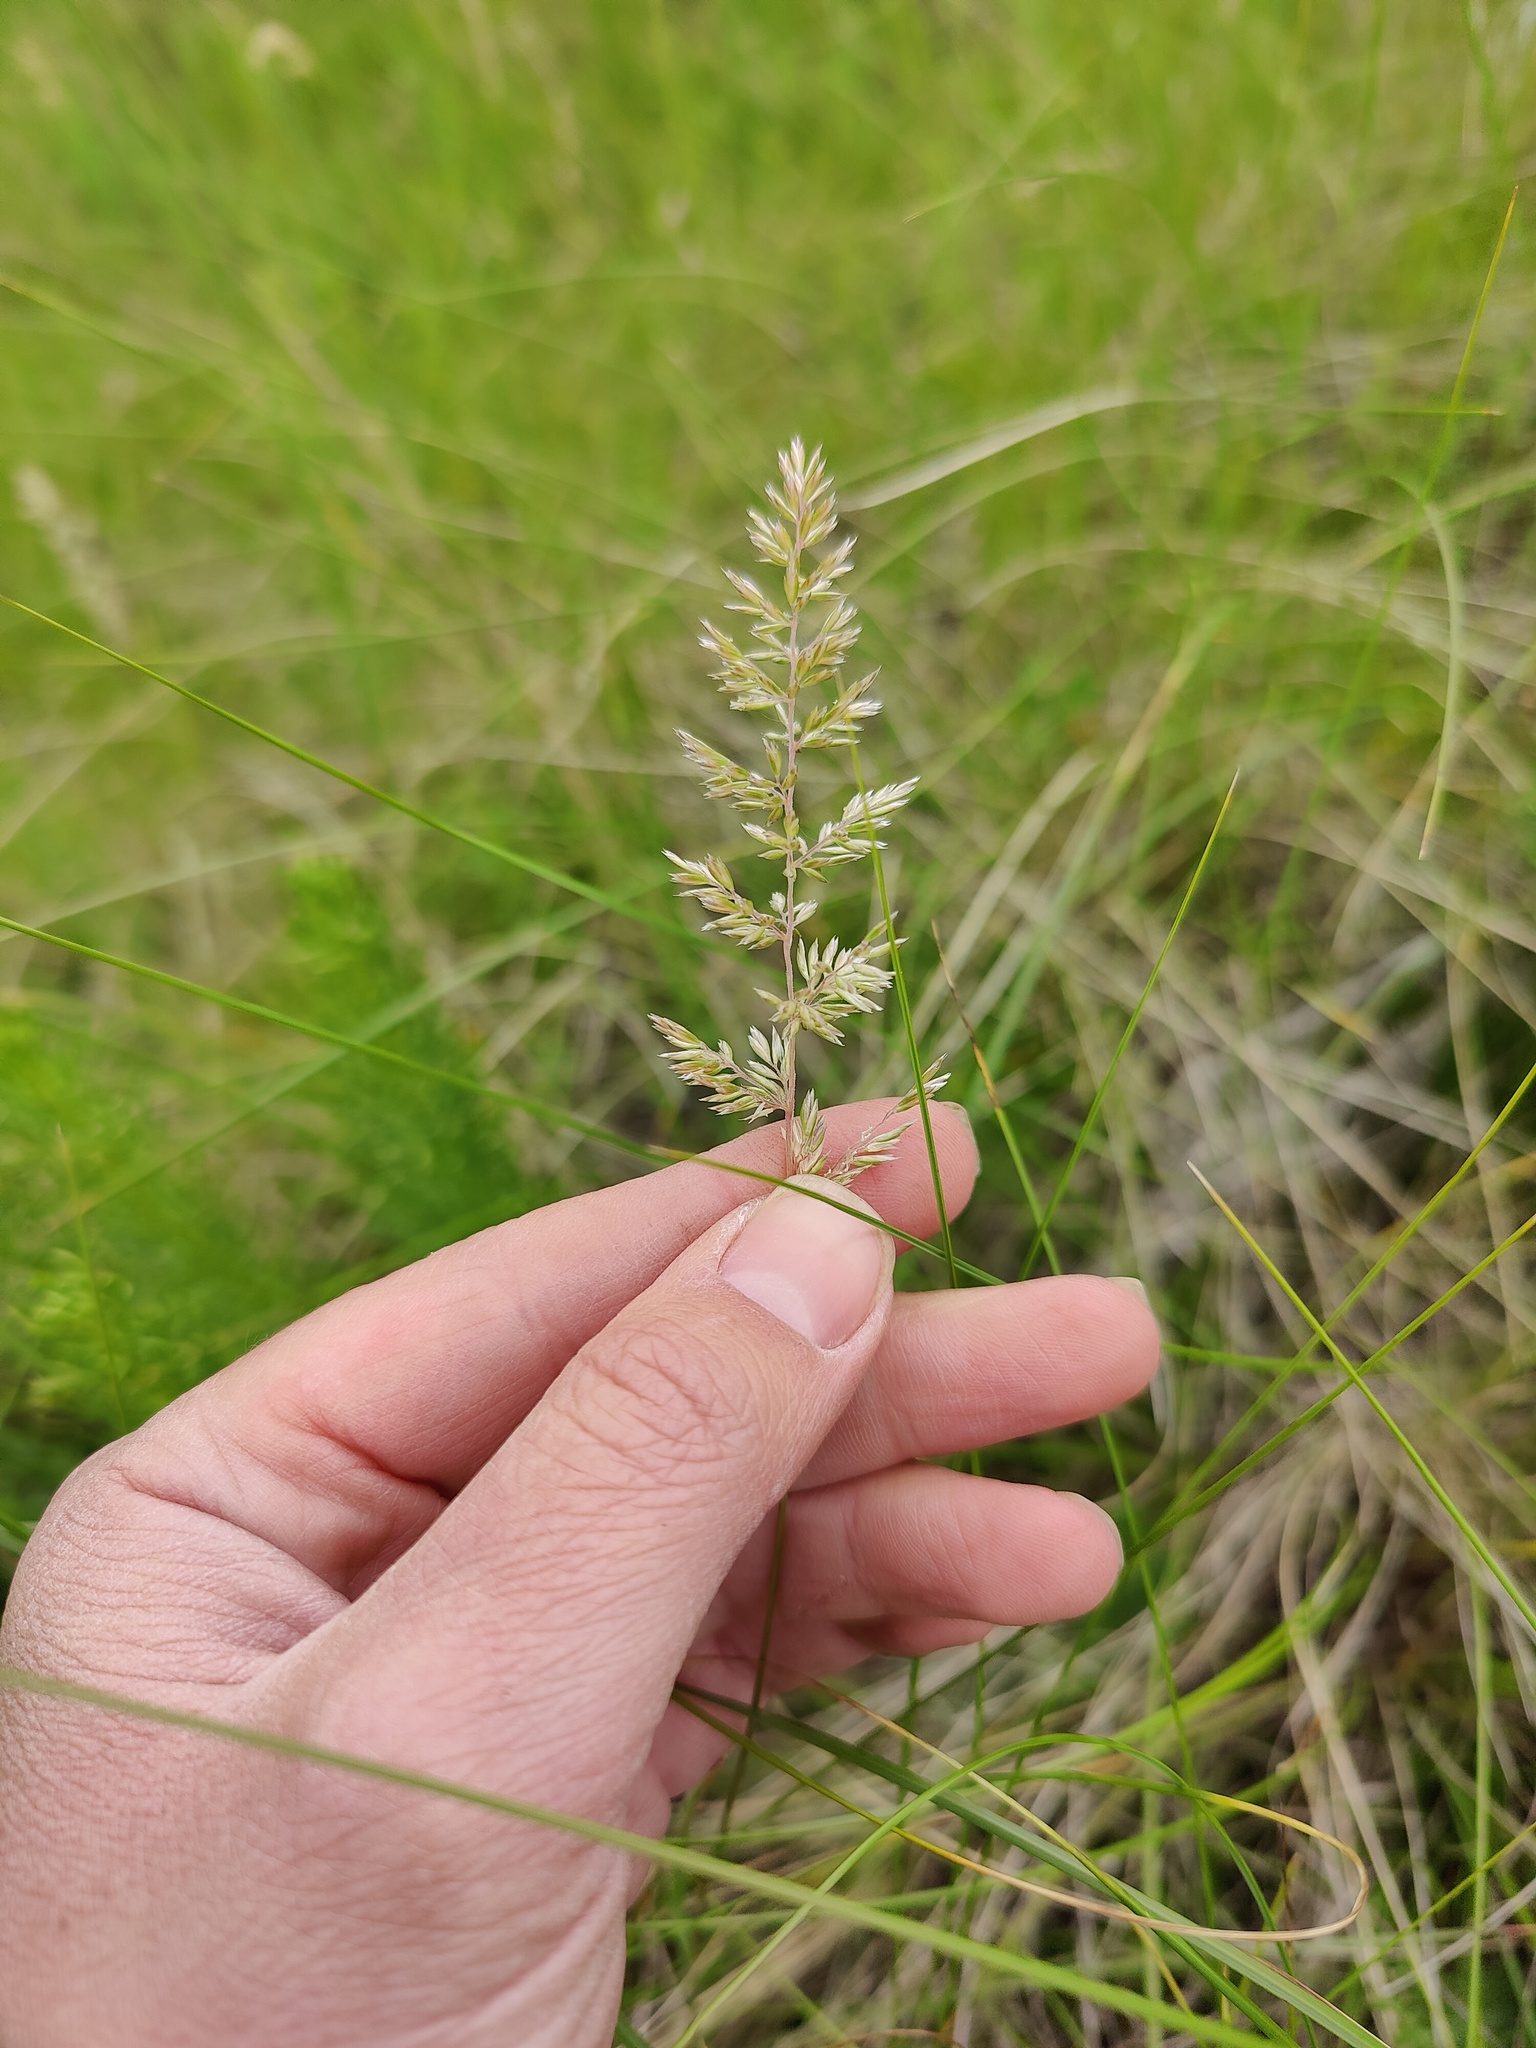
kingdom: Plantae
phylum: Tracheophyta
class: Liliopsida
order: Poales
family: Poaceae
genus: Koeleria
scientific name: Koeleria macrantha
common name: Crested hair-grass
